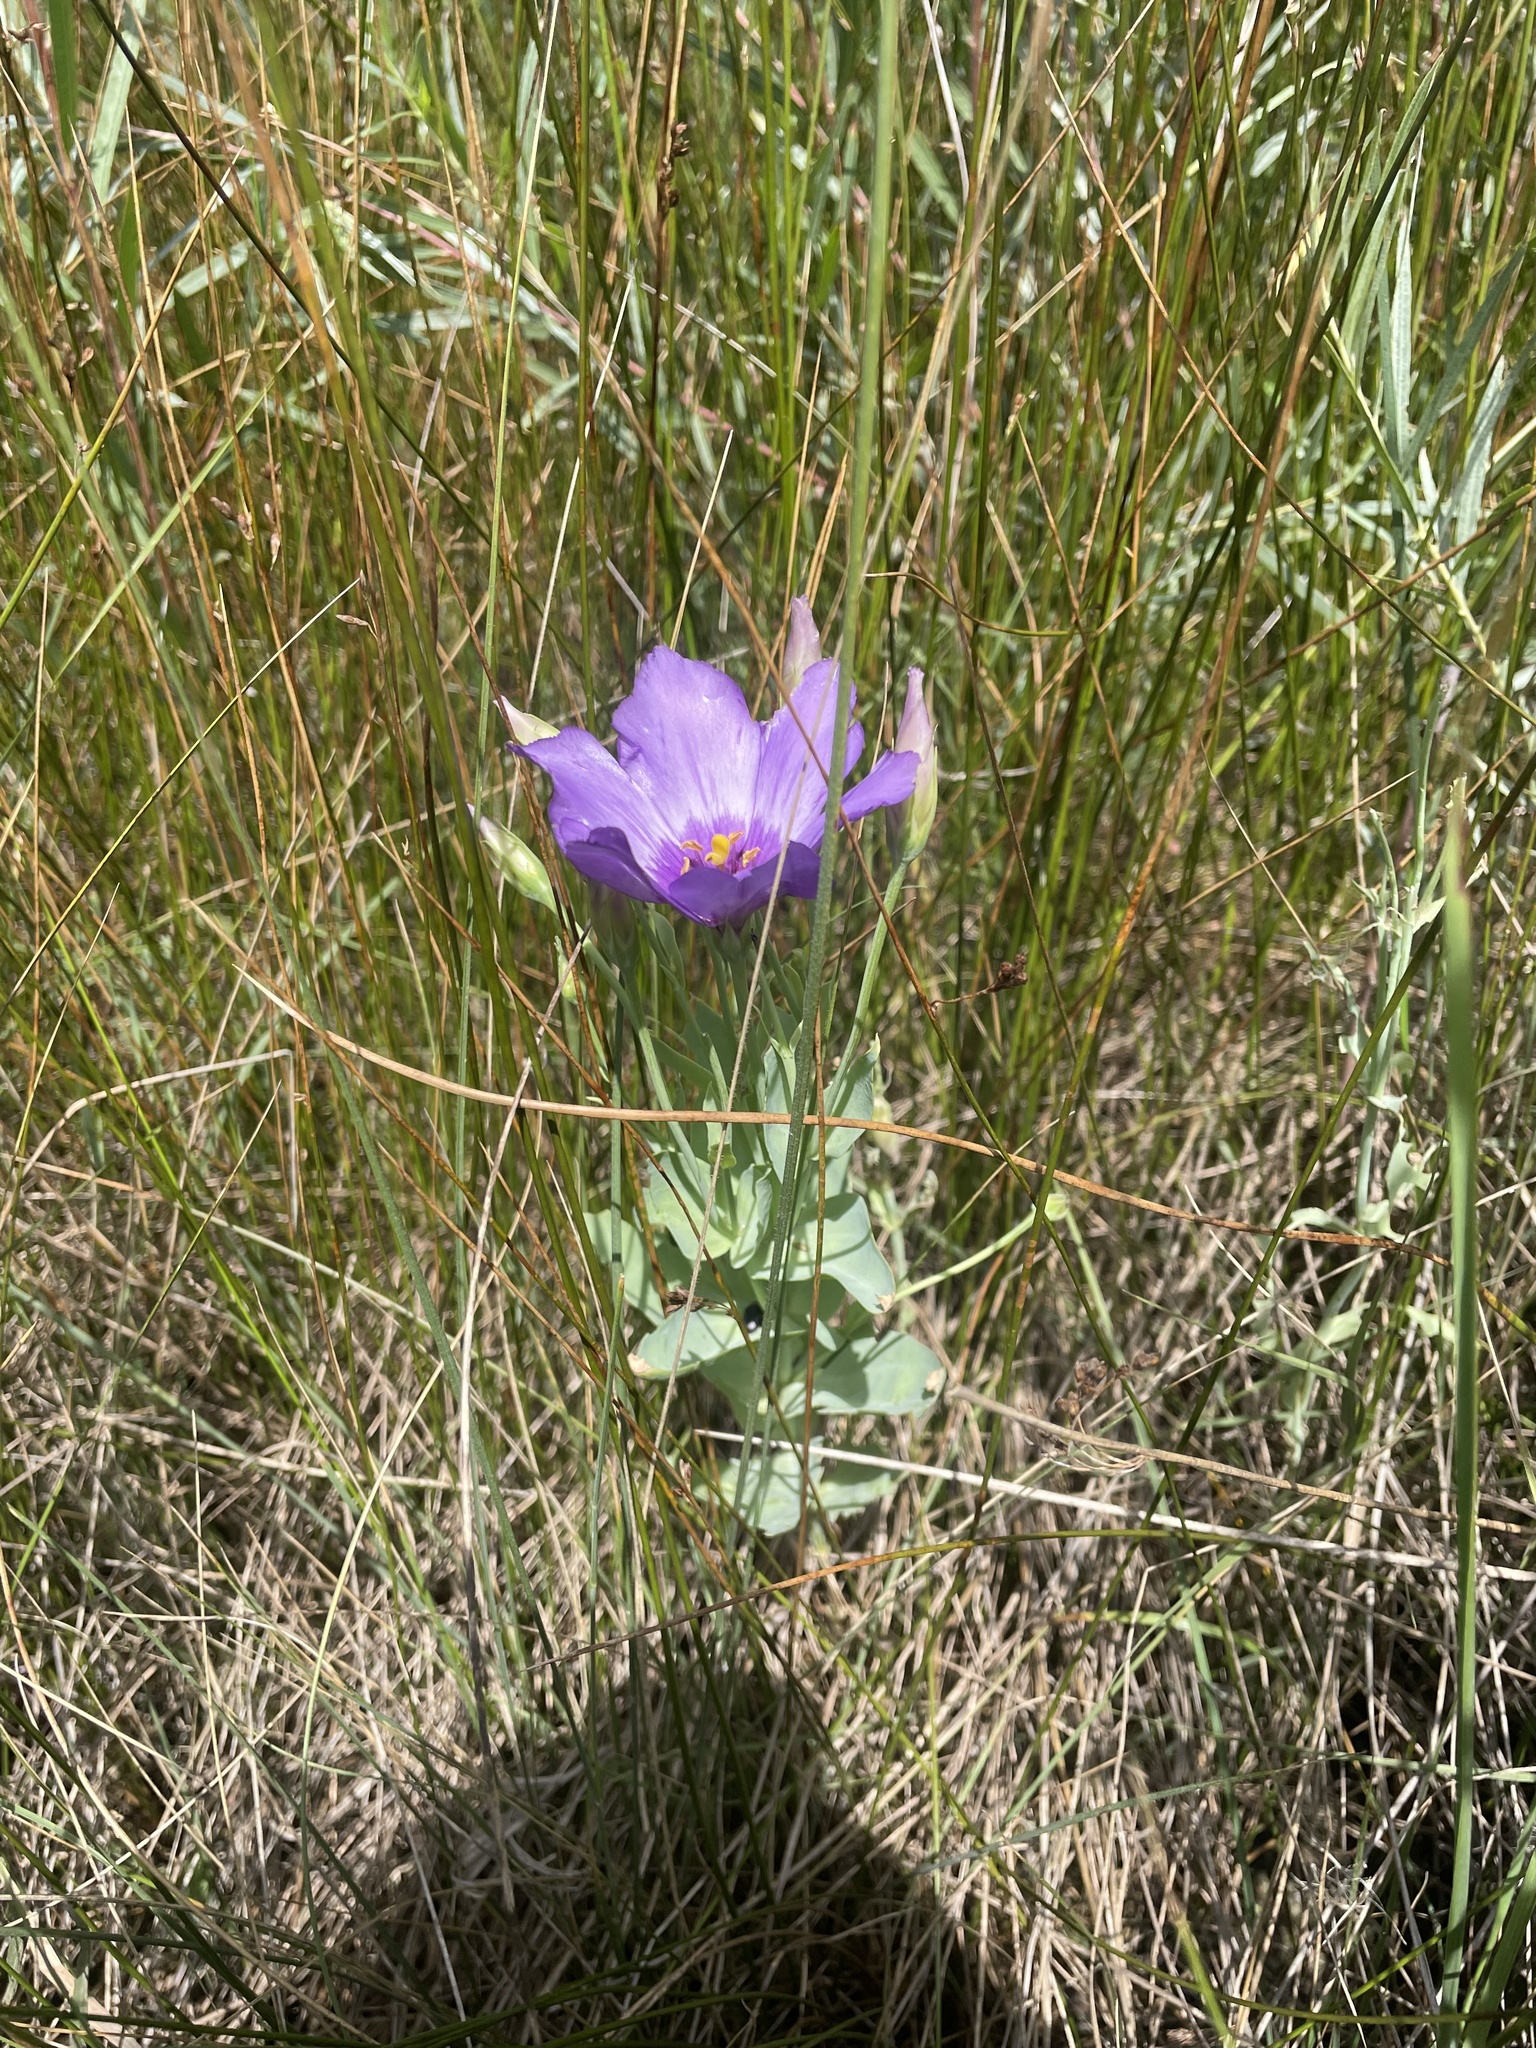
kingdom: Plantae
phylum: Tracheophyta
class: Magnoliopsida
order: Gentianales
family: Gentianaceae
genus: Eustoma
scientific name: Eustoma russellianum
